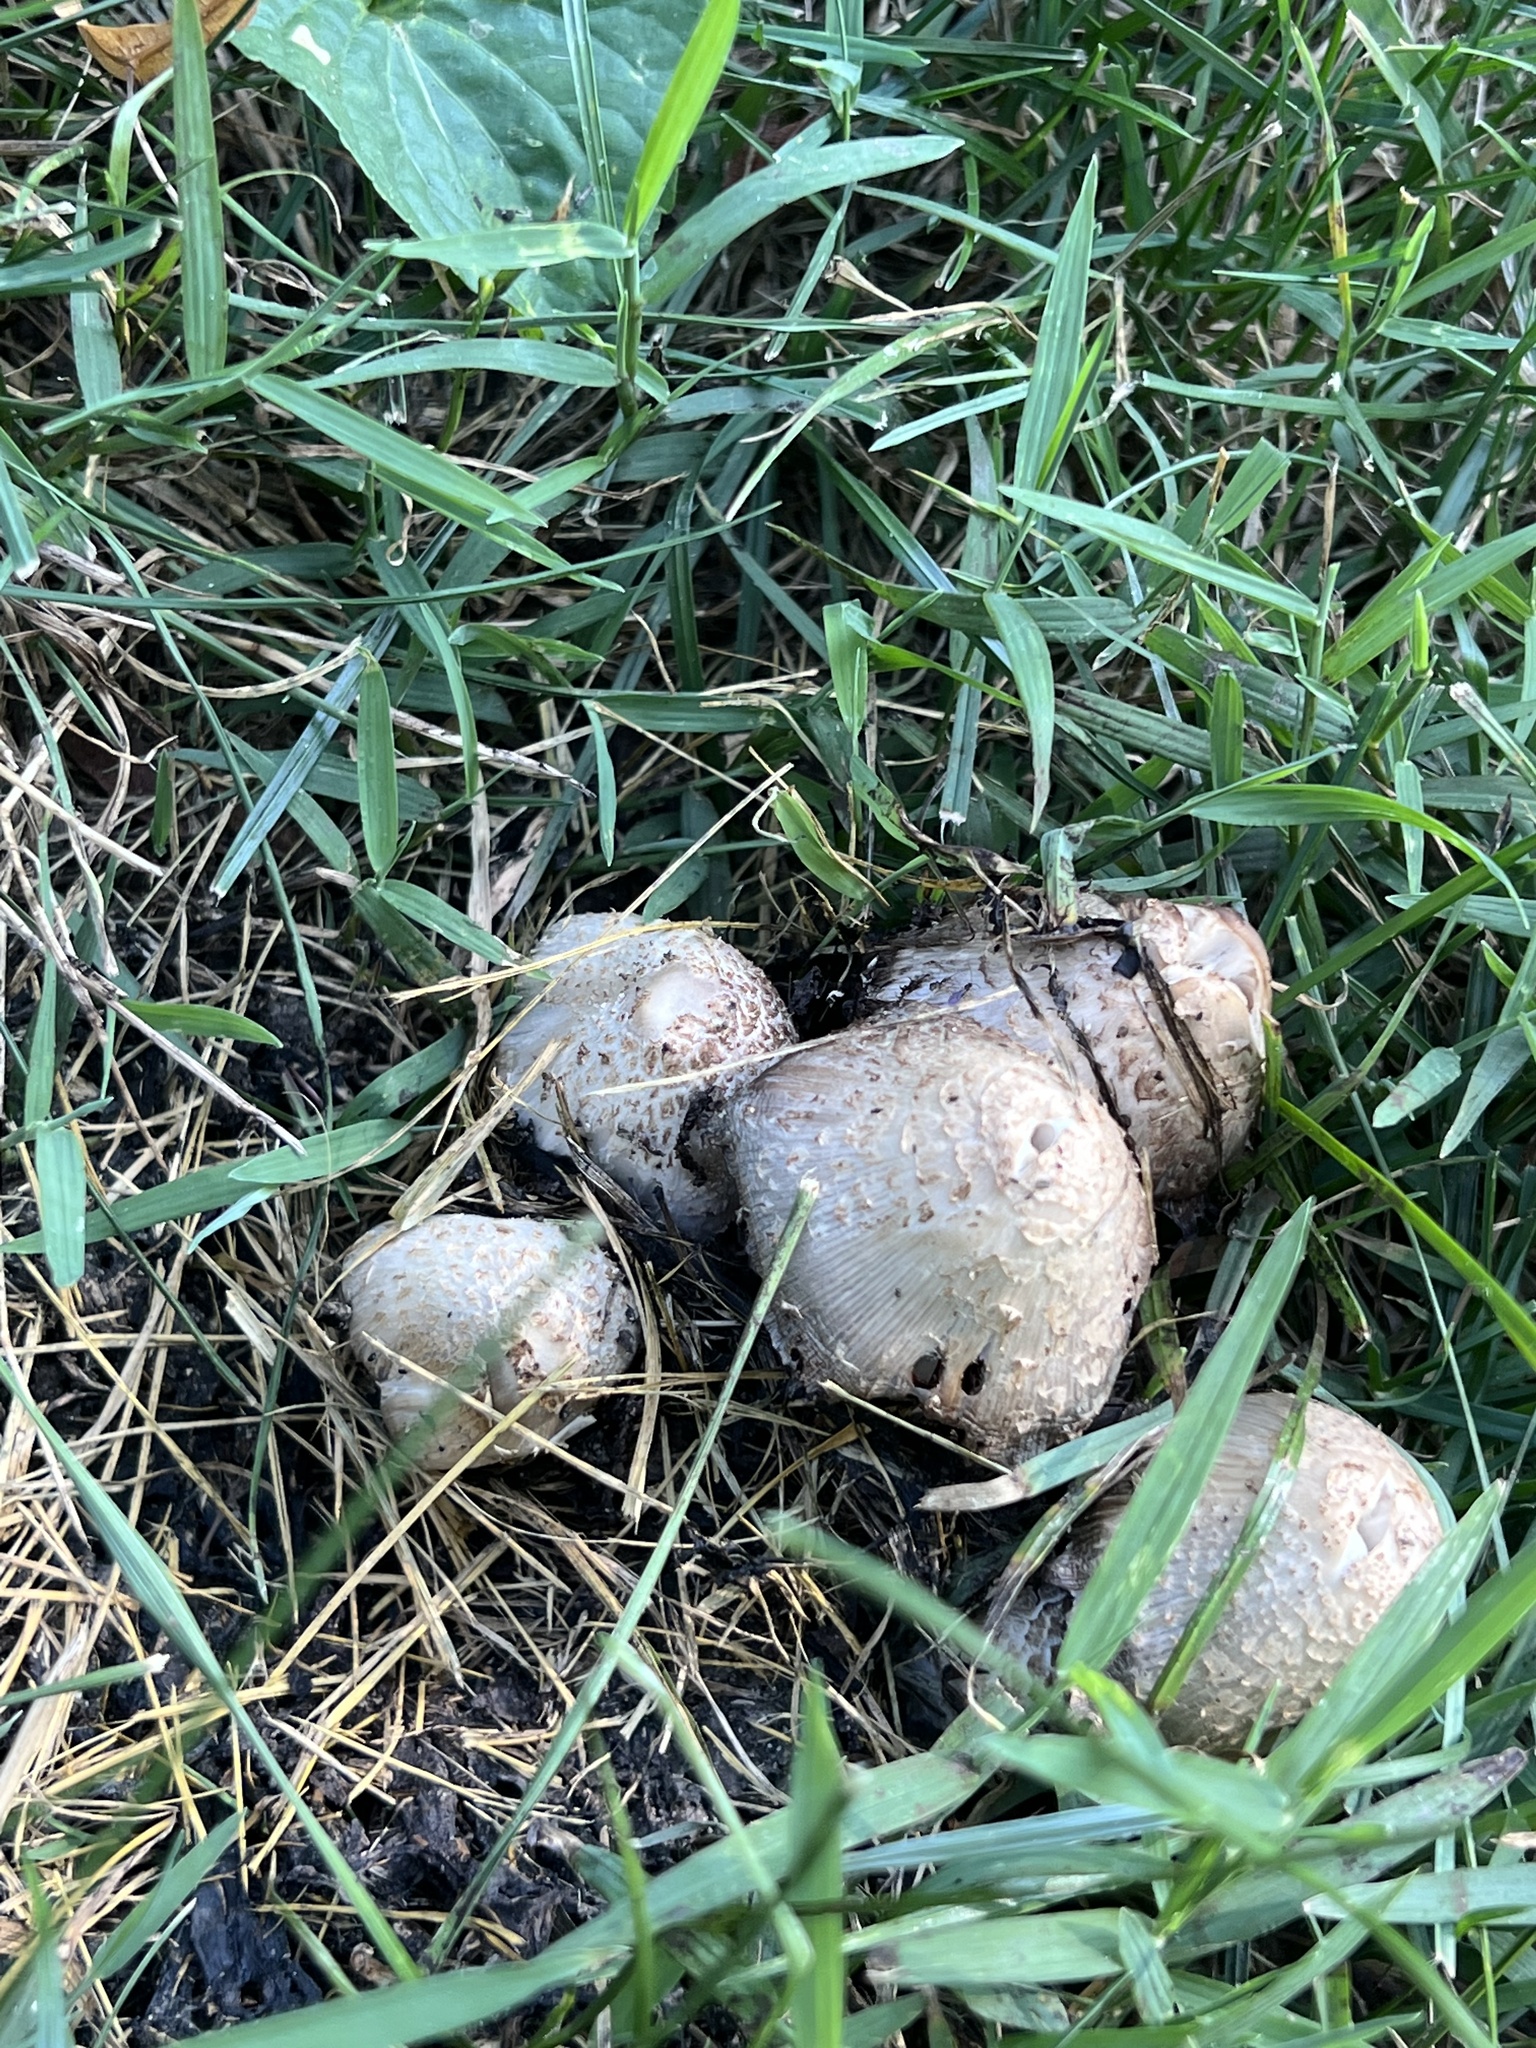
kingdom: Fungi
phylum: Basidiomycota
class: Agaricomycetes
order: Agaricales
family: Psathyrellaceae
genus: Coprinopsis
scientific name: Coprinopsis variegata
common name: Scaly ink cap
